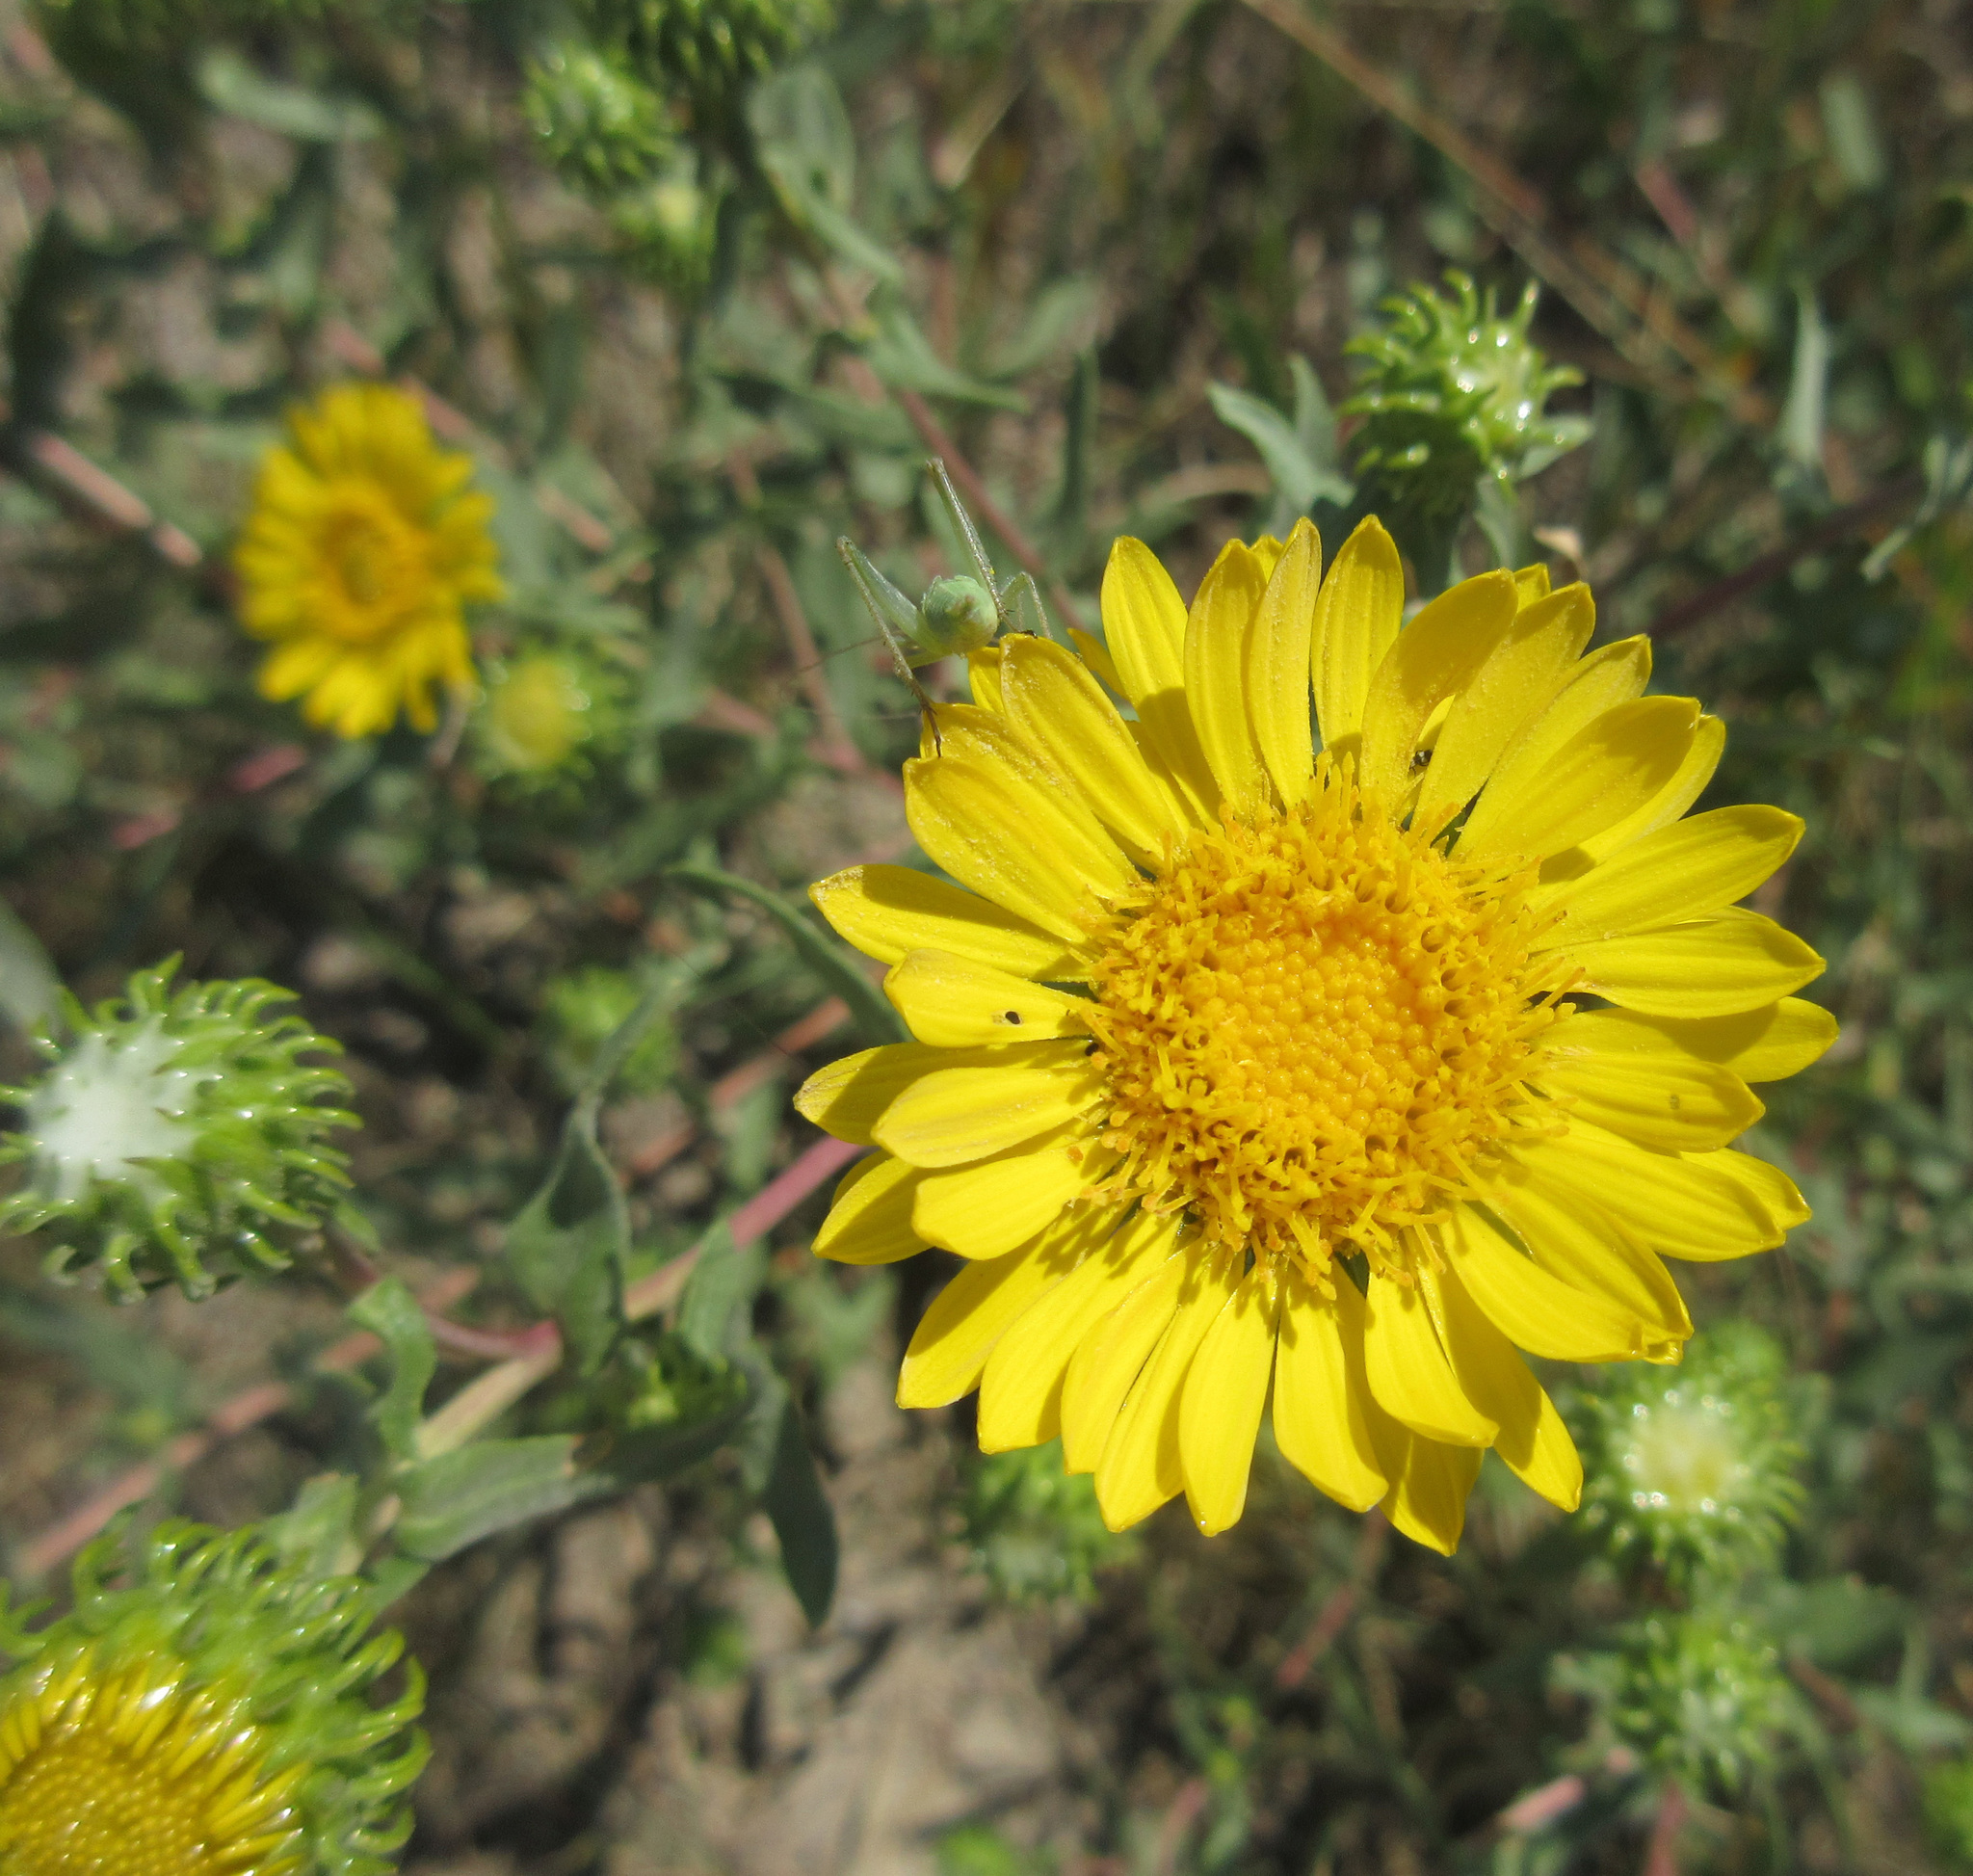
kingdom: Plantae
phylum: Tracheophyta
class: Magnoliopsida
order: Asterales
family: Asteraceae
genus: Grindelia
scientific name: Grindelia squarrosa
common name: Curly-cup gumweed
